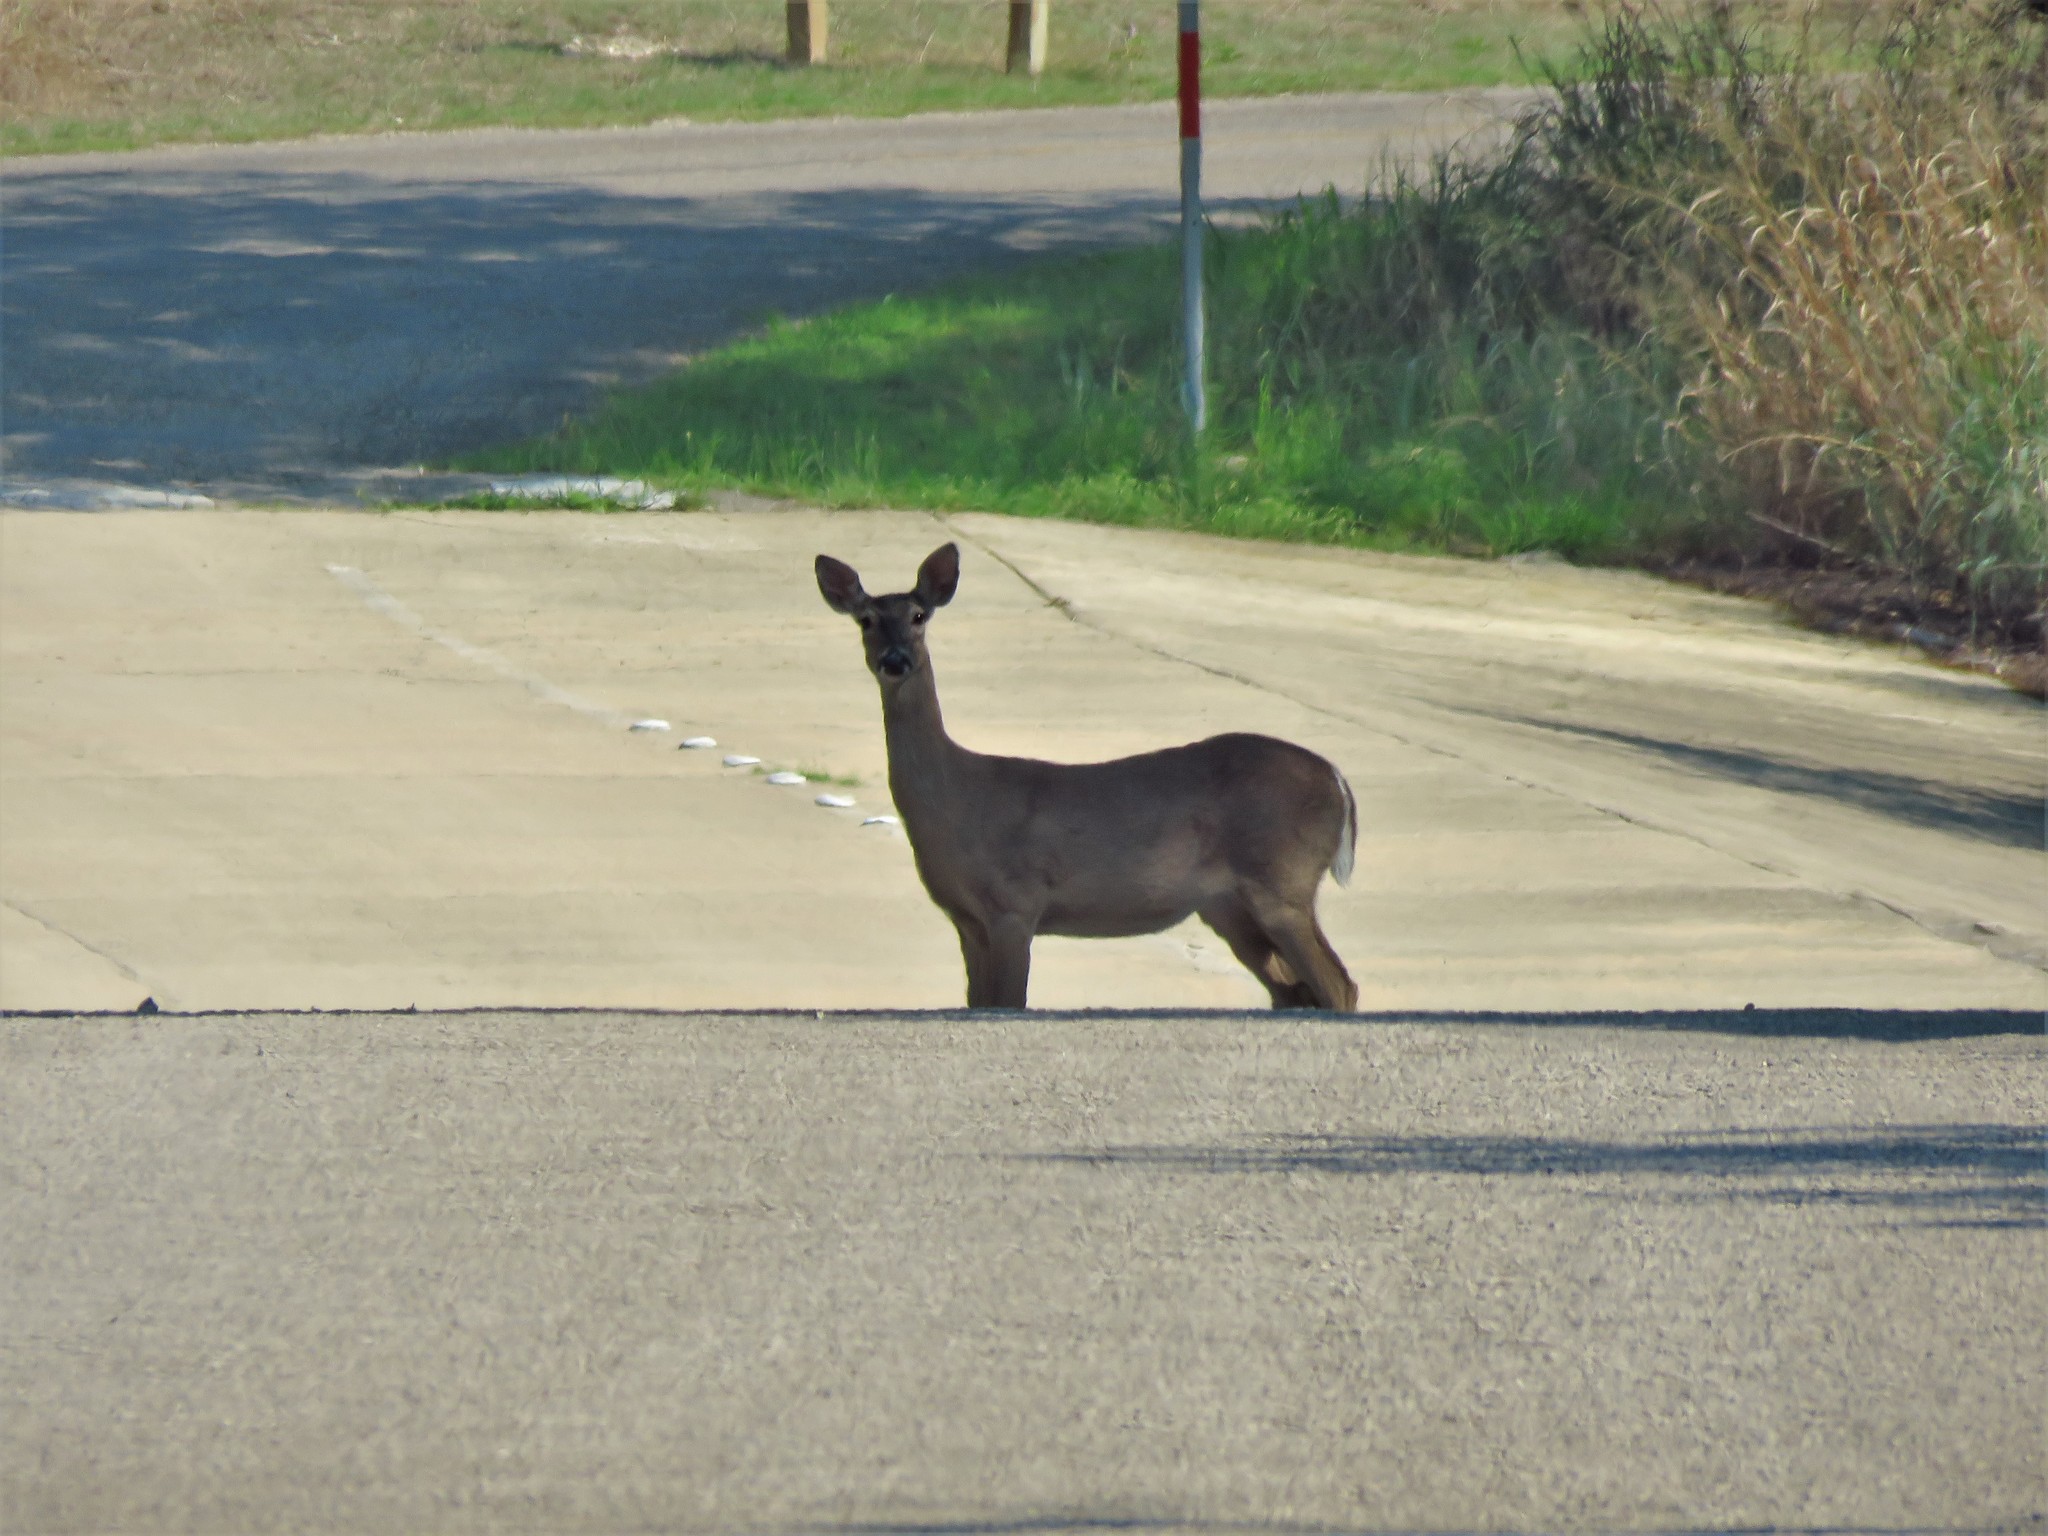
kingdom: Animalia
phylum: Chordata
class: Mammalia
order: Artiodactyla
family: Cervidae
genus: Odocoileus
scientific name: Odocoileus virginianus
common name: White-tailed deer
